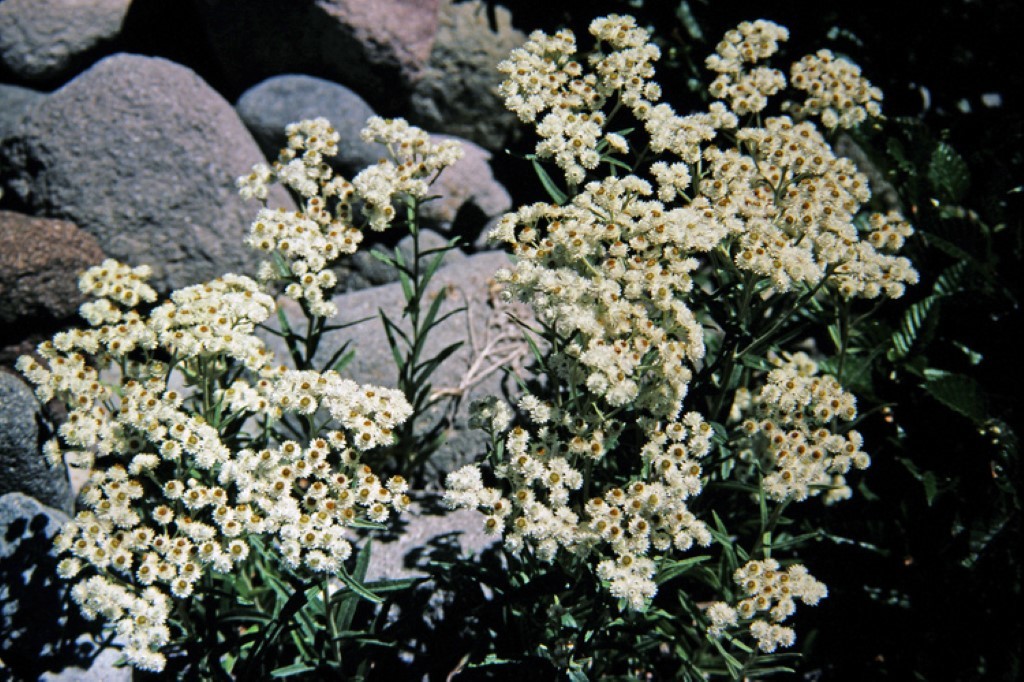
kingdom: Plantae
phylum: Tracheophyta
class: Magnoliopsida
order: Asterales
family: Asteraceae
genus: Anaphalis
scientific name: Anaphalis margaritacea
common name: Pearly everlasting
